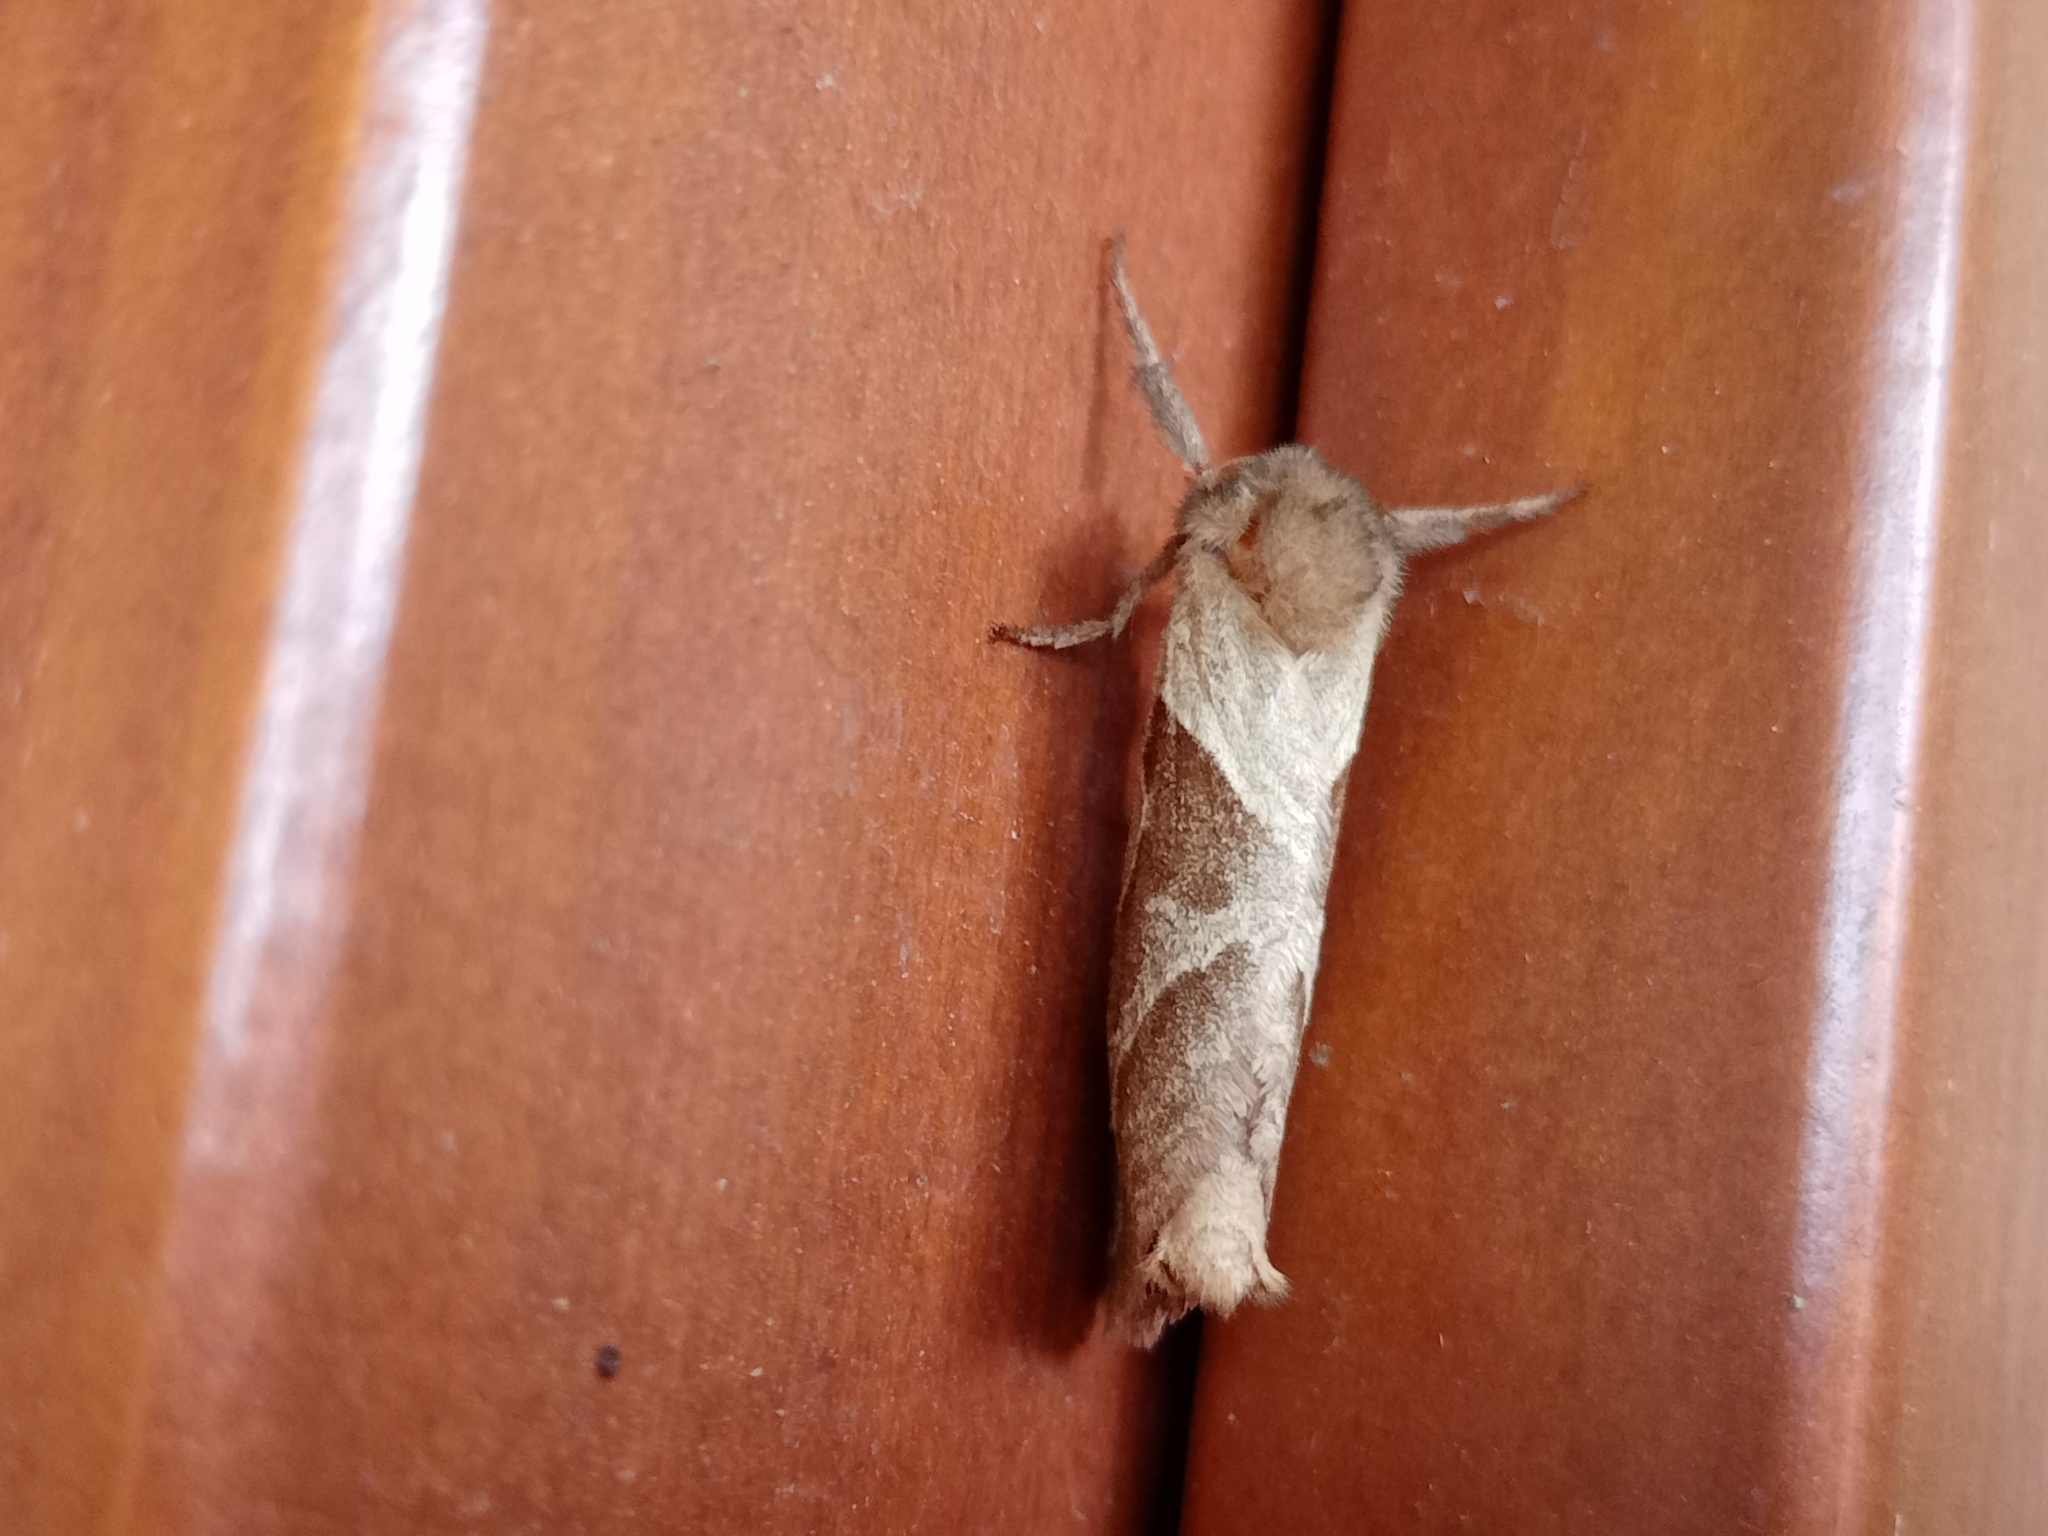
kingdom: Animalia
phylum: Arthropoda
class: Insecta
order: Lepidoptera
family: Hepialidae
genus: Triodia
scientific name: Triodia sylvina
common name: Orange swift
